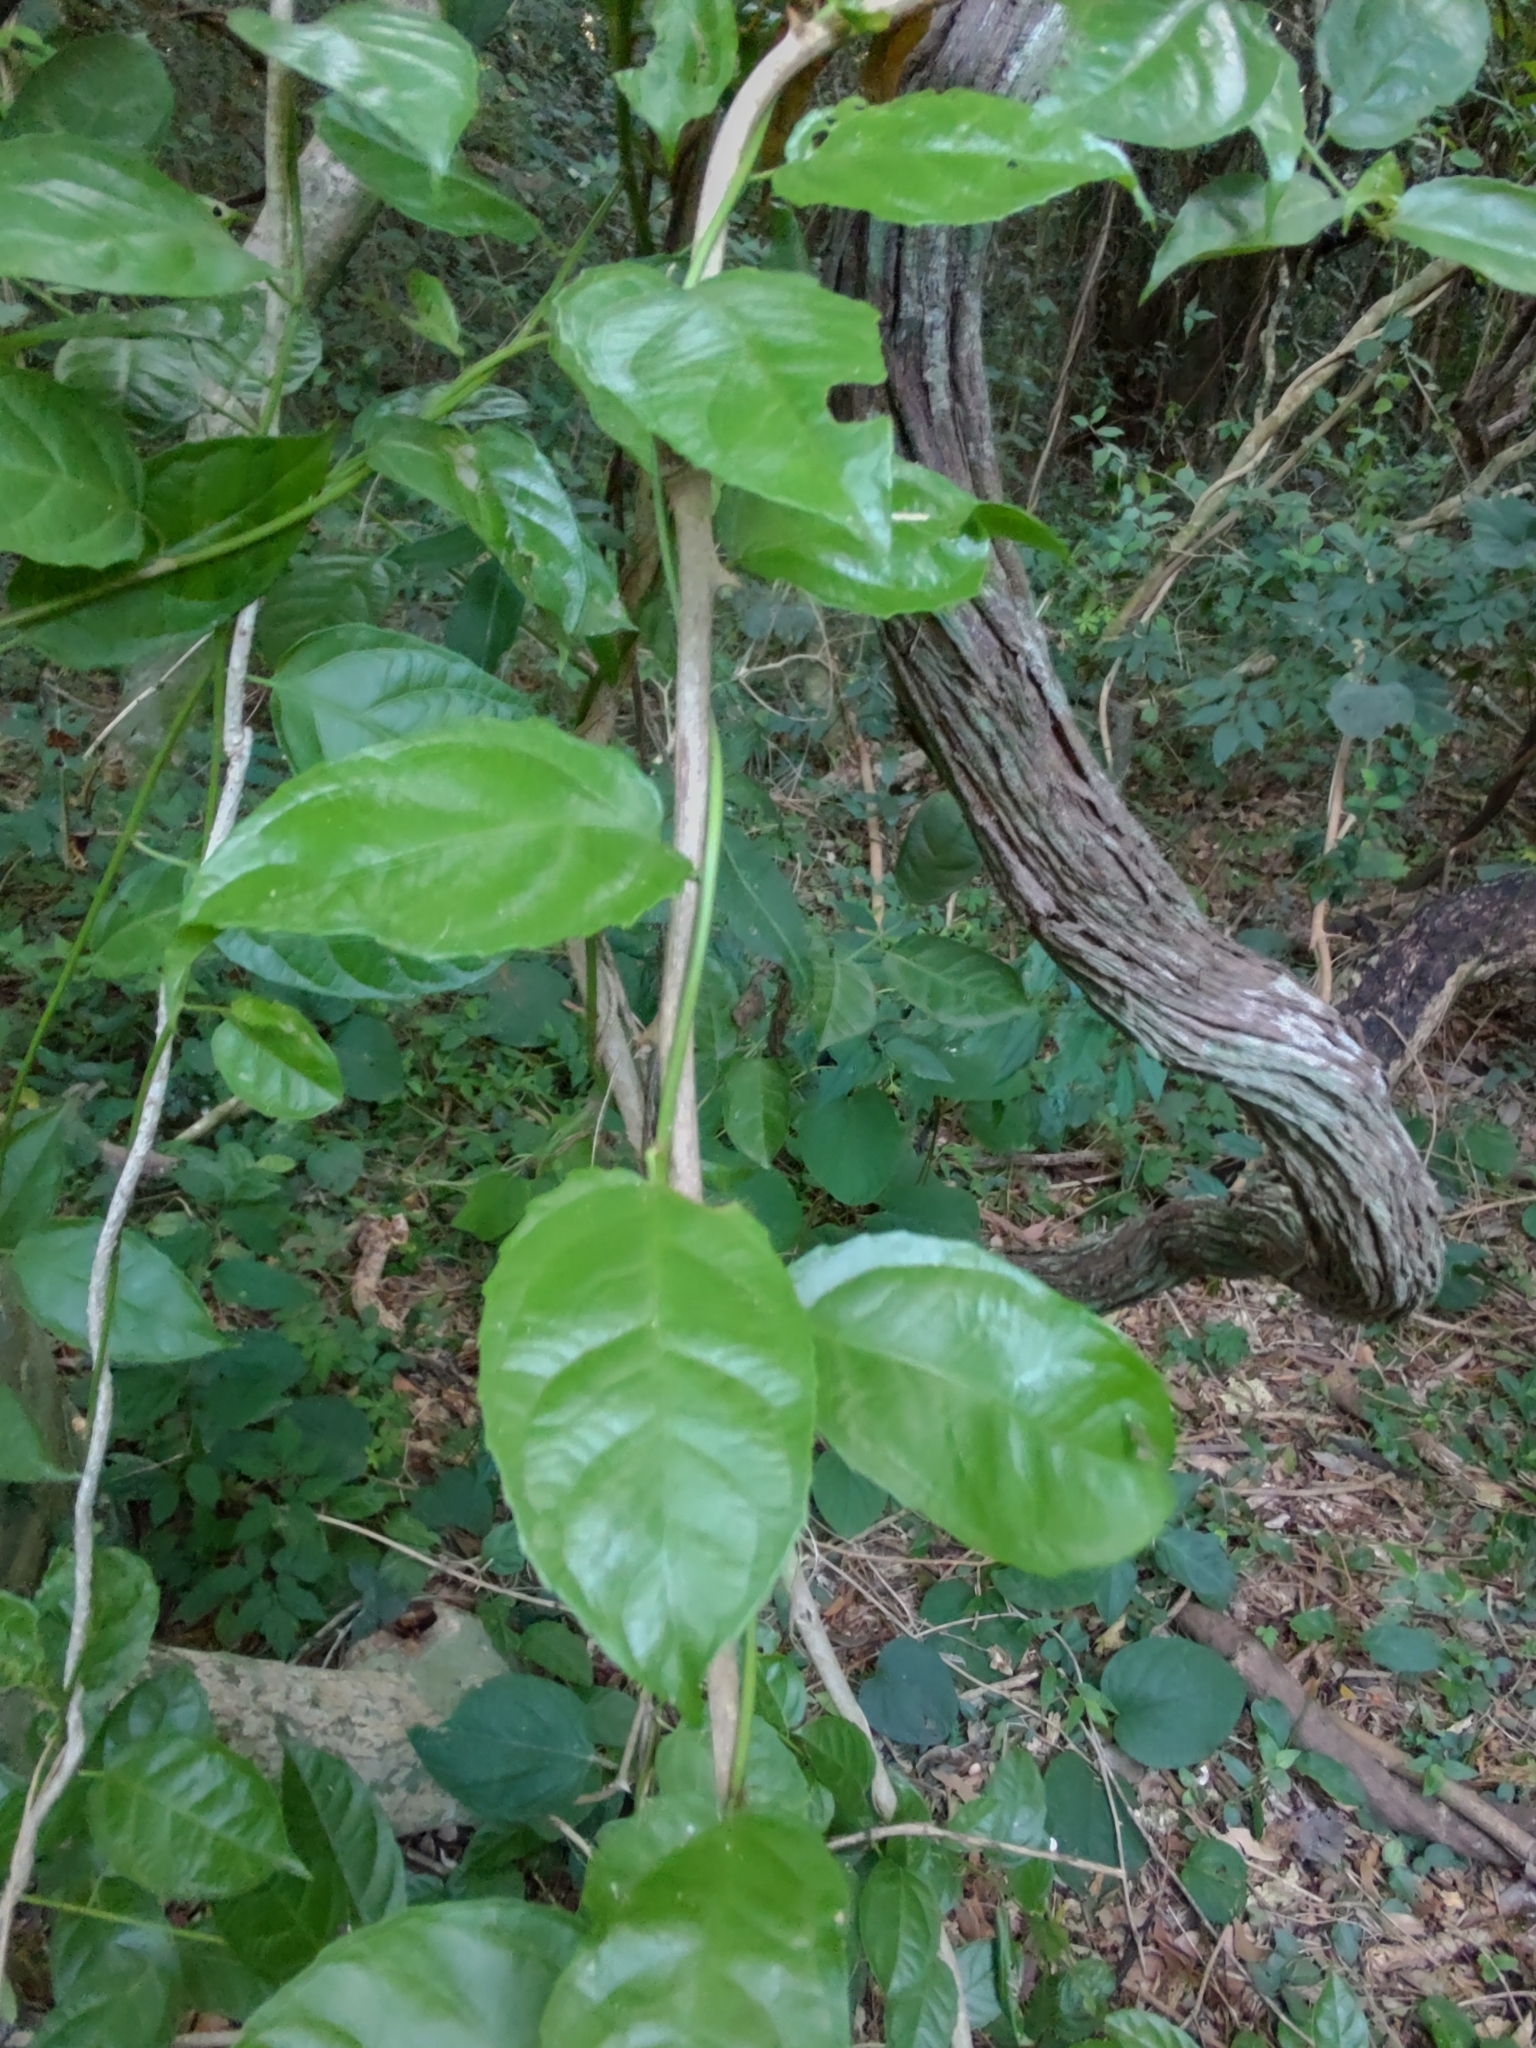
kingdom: Plantae
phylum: Tracheophyta
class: Magnoliopsida
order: Malpighiales
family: Violaceae
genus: Anchietea
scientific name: Anchietea pyrifolia
